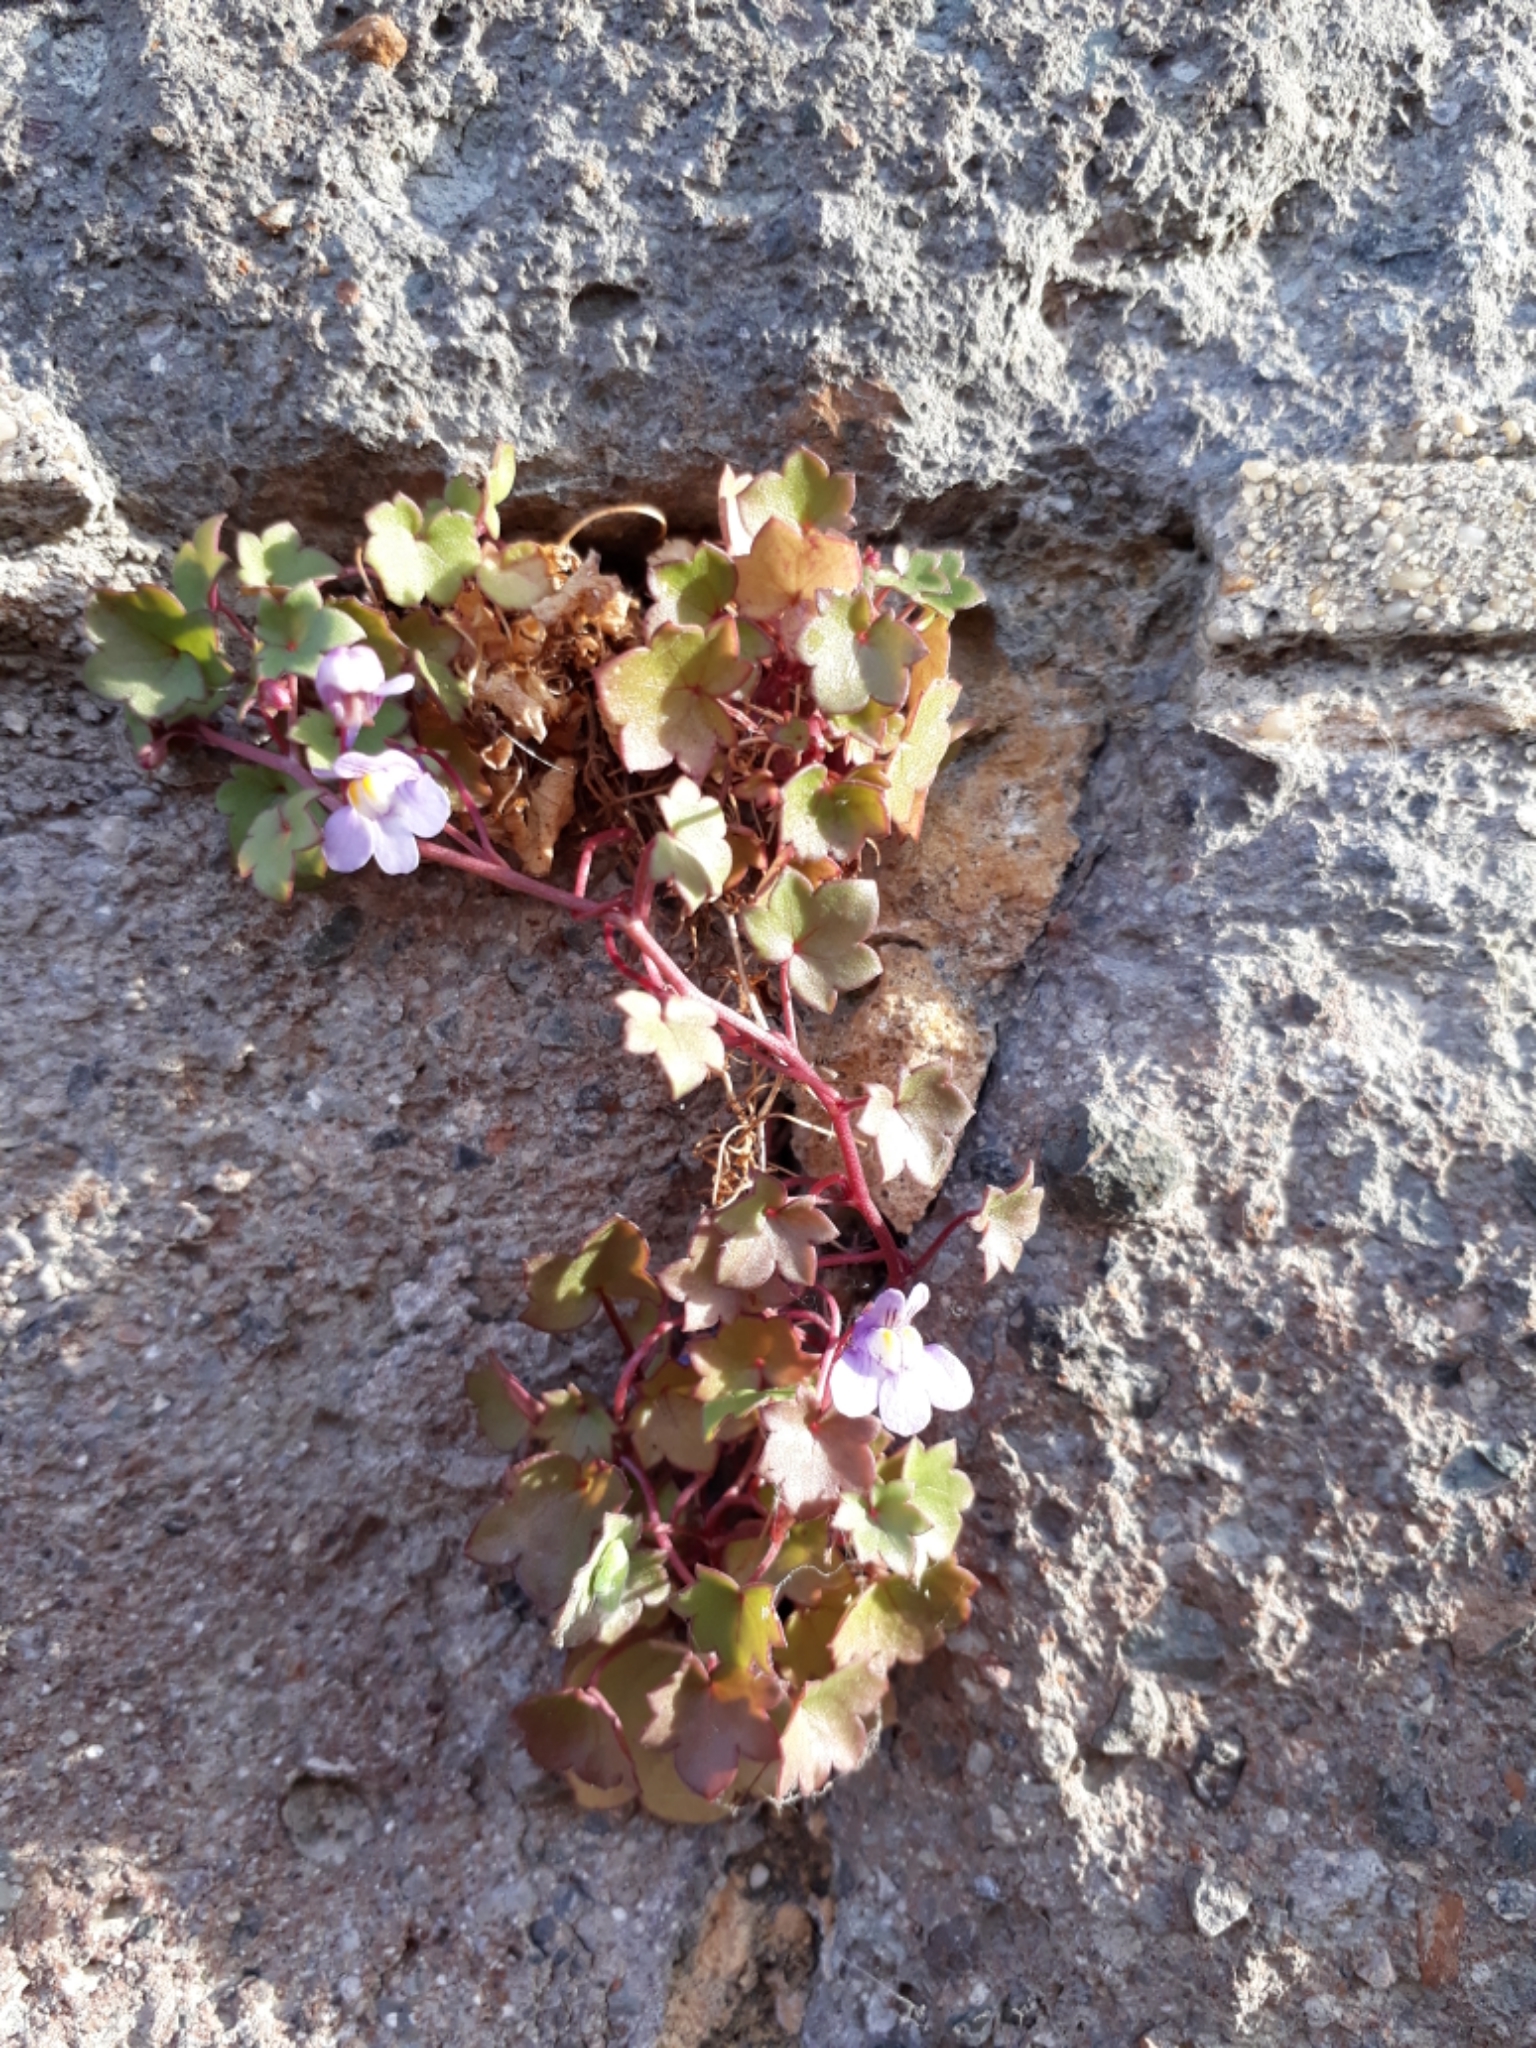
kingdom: Plantae
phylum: Tracheophyta
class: Magnoliopsida
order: Lamiales
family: Plantaginaceae
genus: Cymbalaria
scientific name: Cymbalaria muralis
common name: Ivy-leaved toadflax
